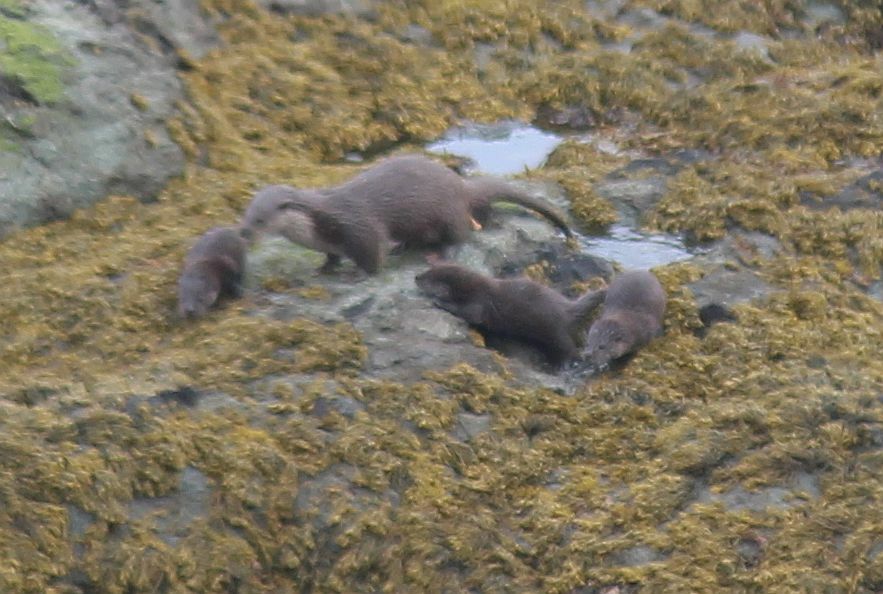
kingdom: Animalia
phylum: Chordata
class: Mammalia
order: Carnivora
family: Mustelidae
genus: Lutra
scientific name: Lutra lutra
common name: European otter
